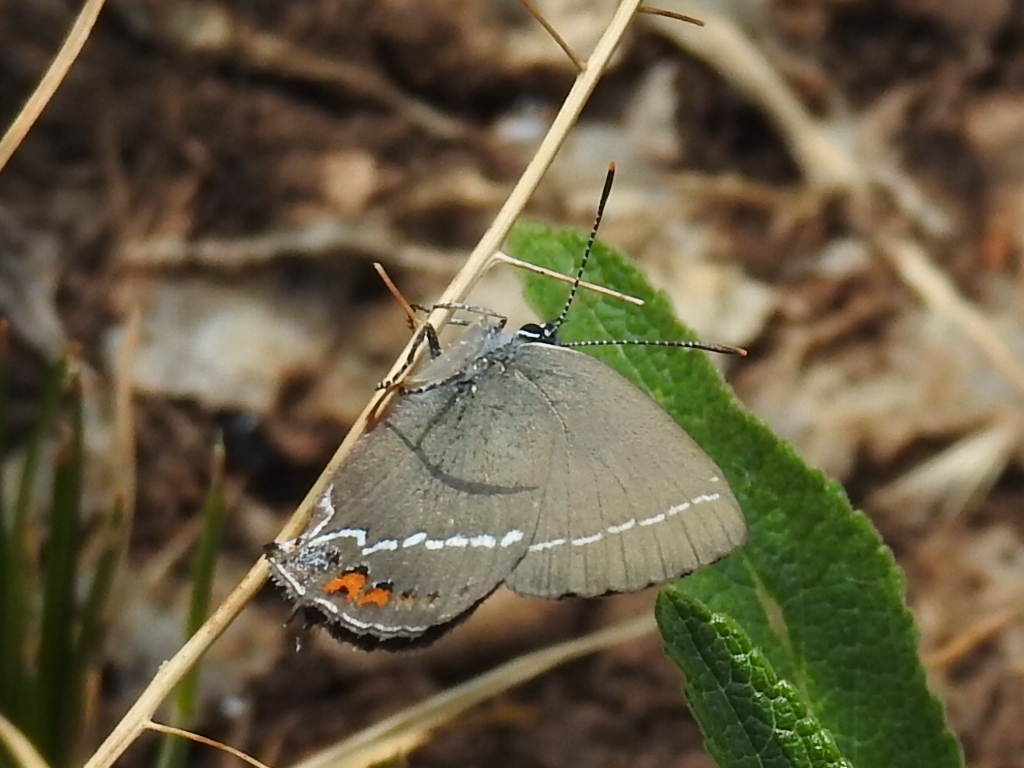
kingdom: Animalia
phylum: Arthropoda
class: Insecta
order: Lepidoptera
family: Lycaenidae
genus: Tuttiola
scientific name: Tuttiola spini
